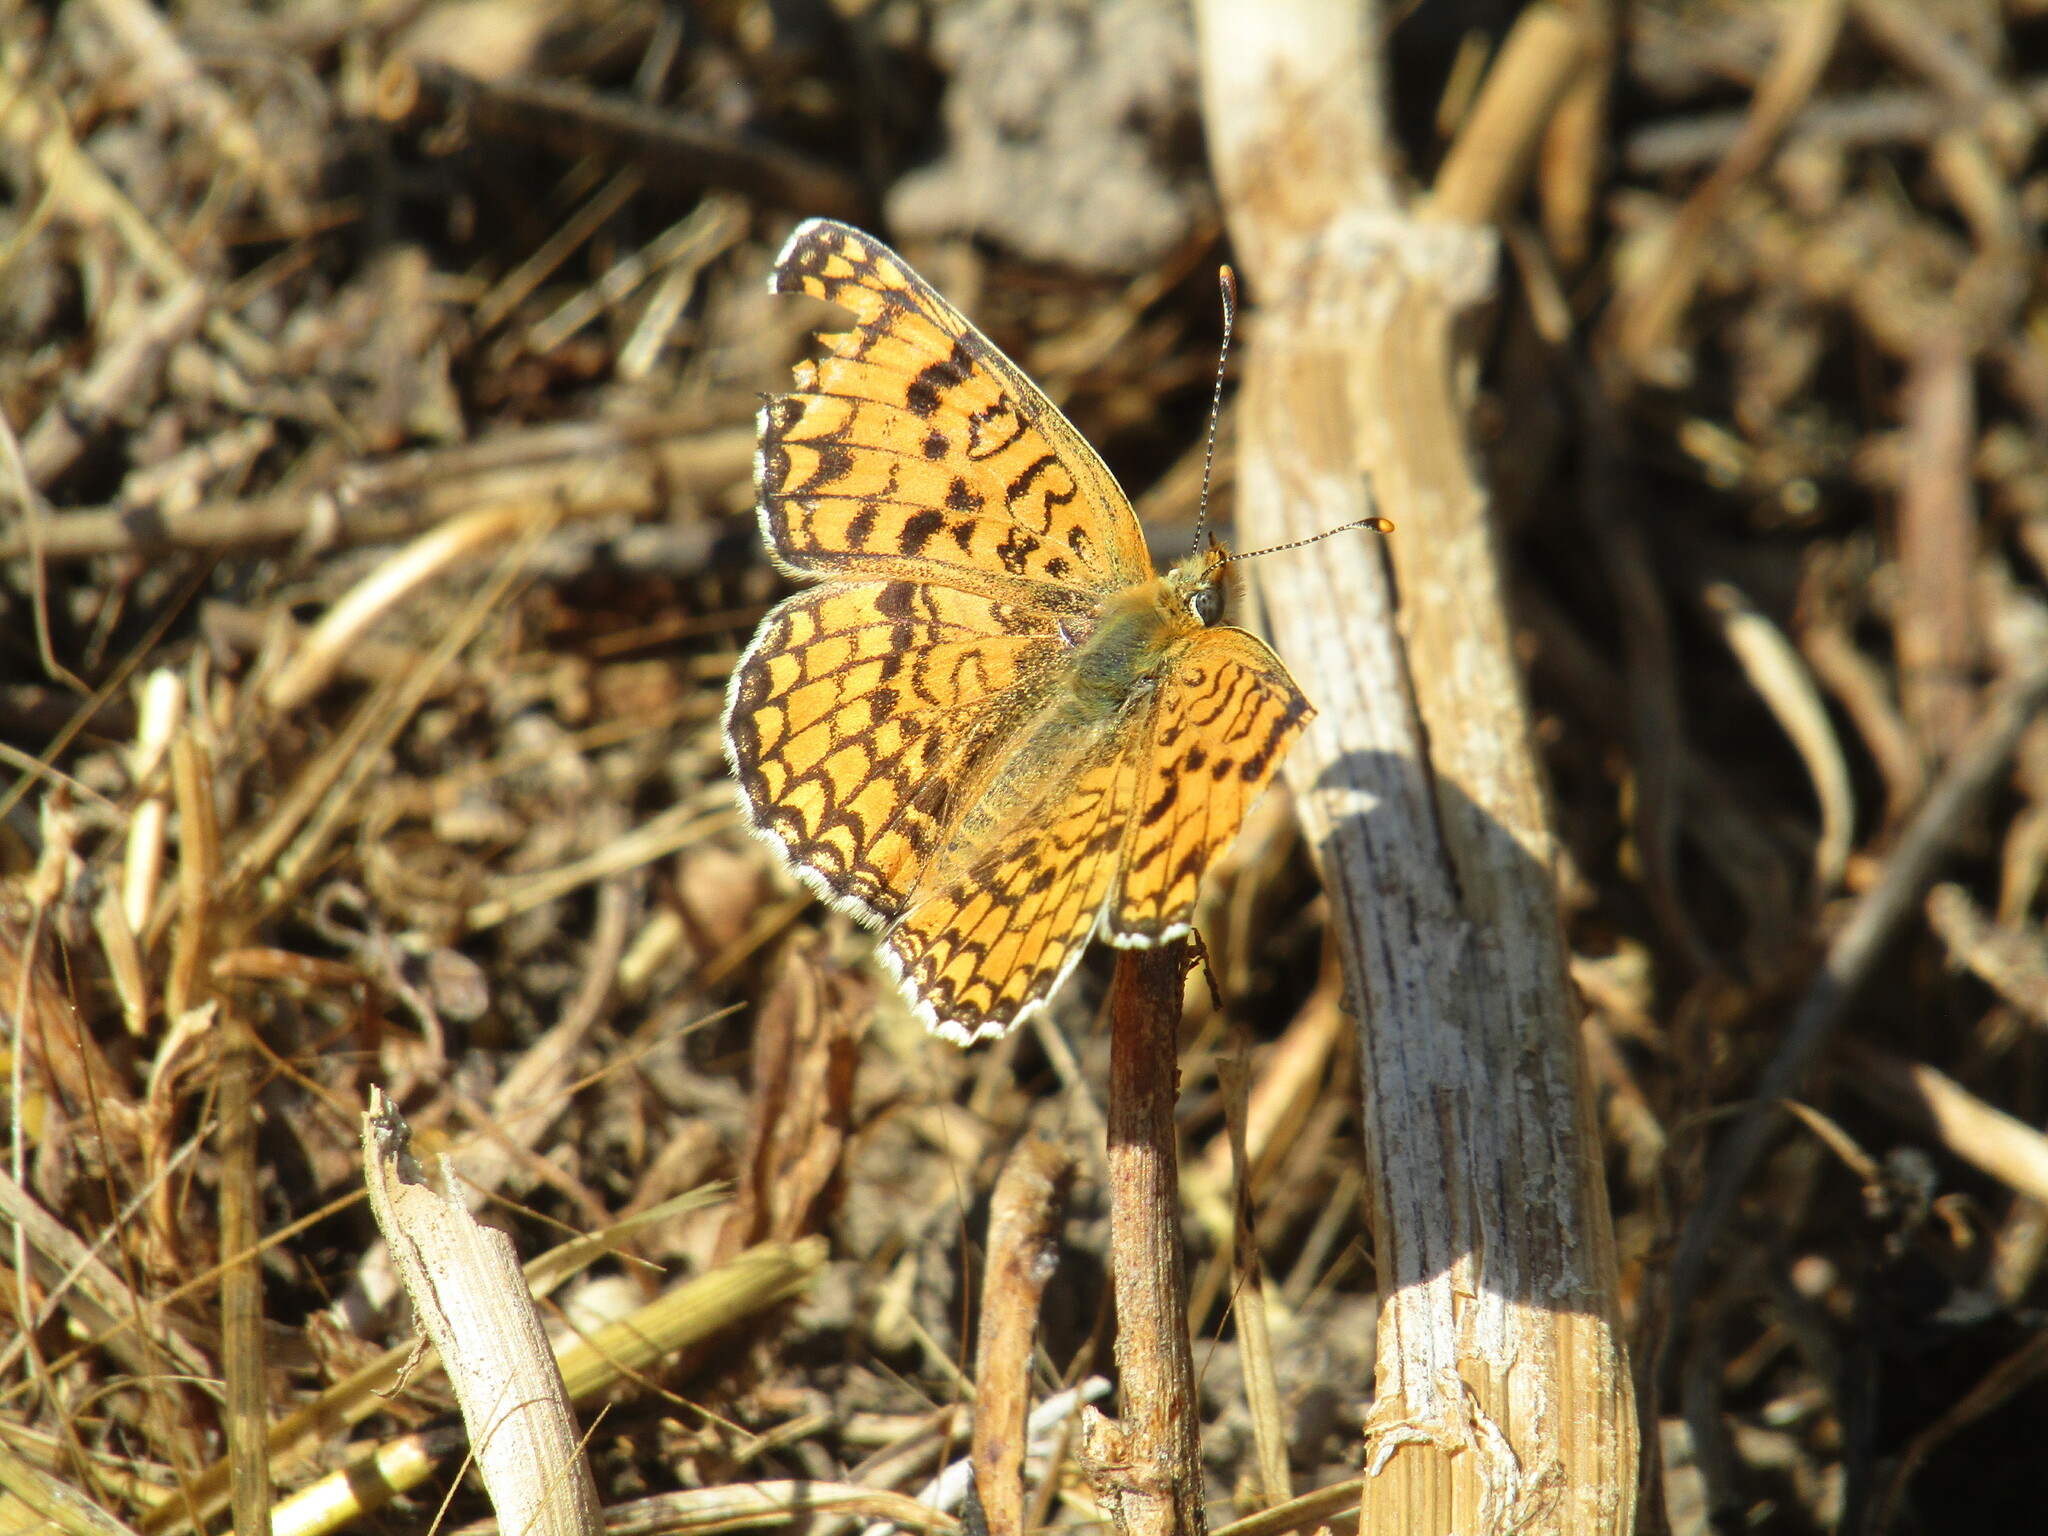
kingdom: Animalia
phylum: Arthropoda
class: Insecta
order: Lepidoptera
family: Nymphalidae
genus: Melitaea
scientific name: Melitaea
